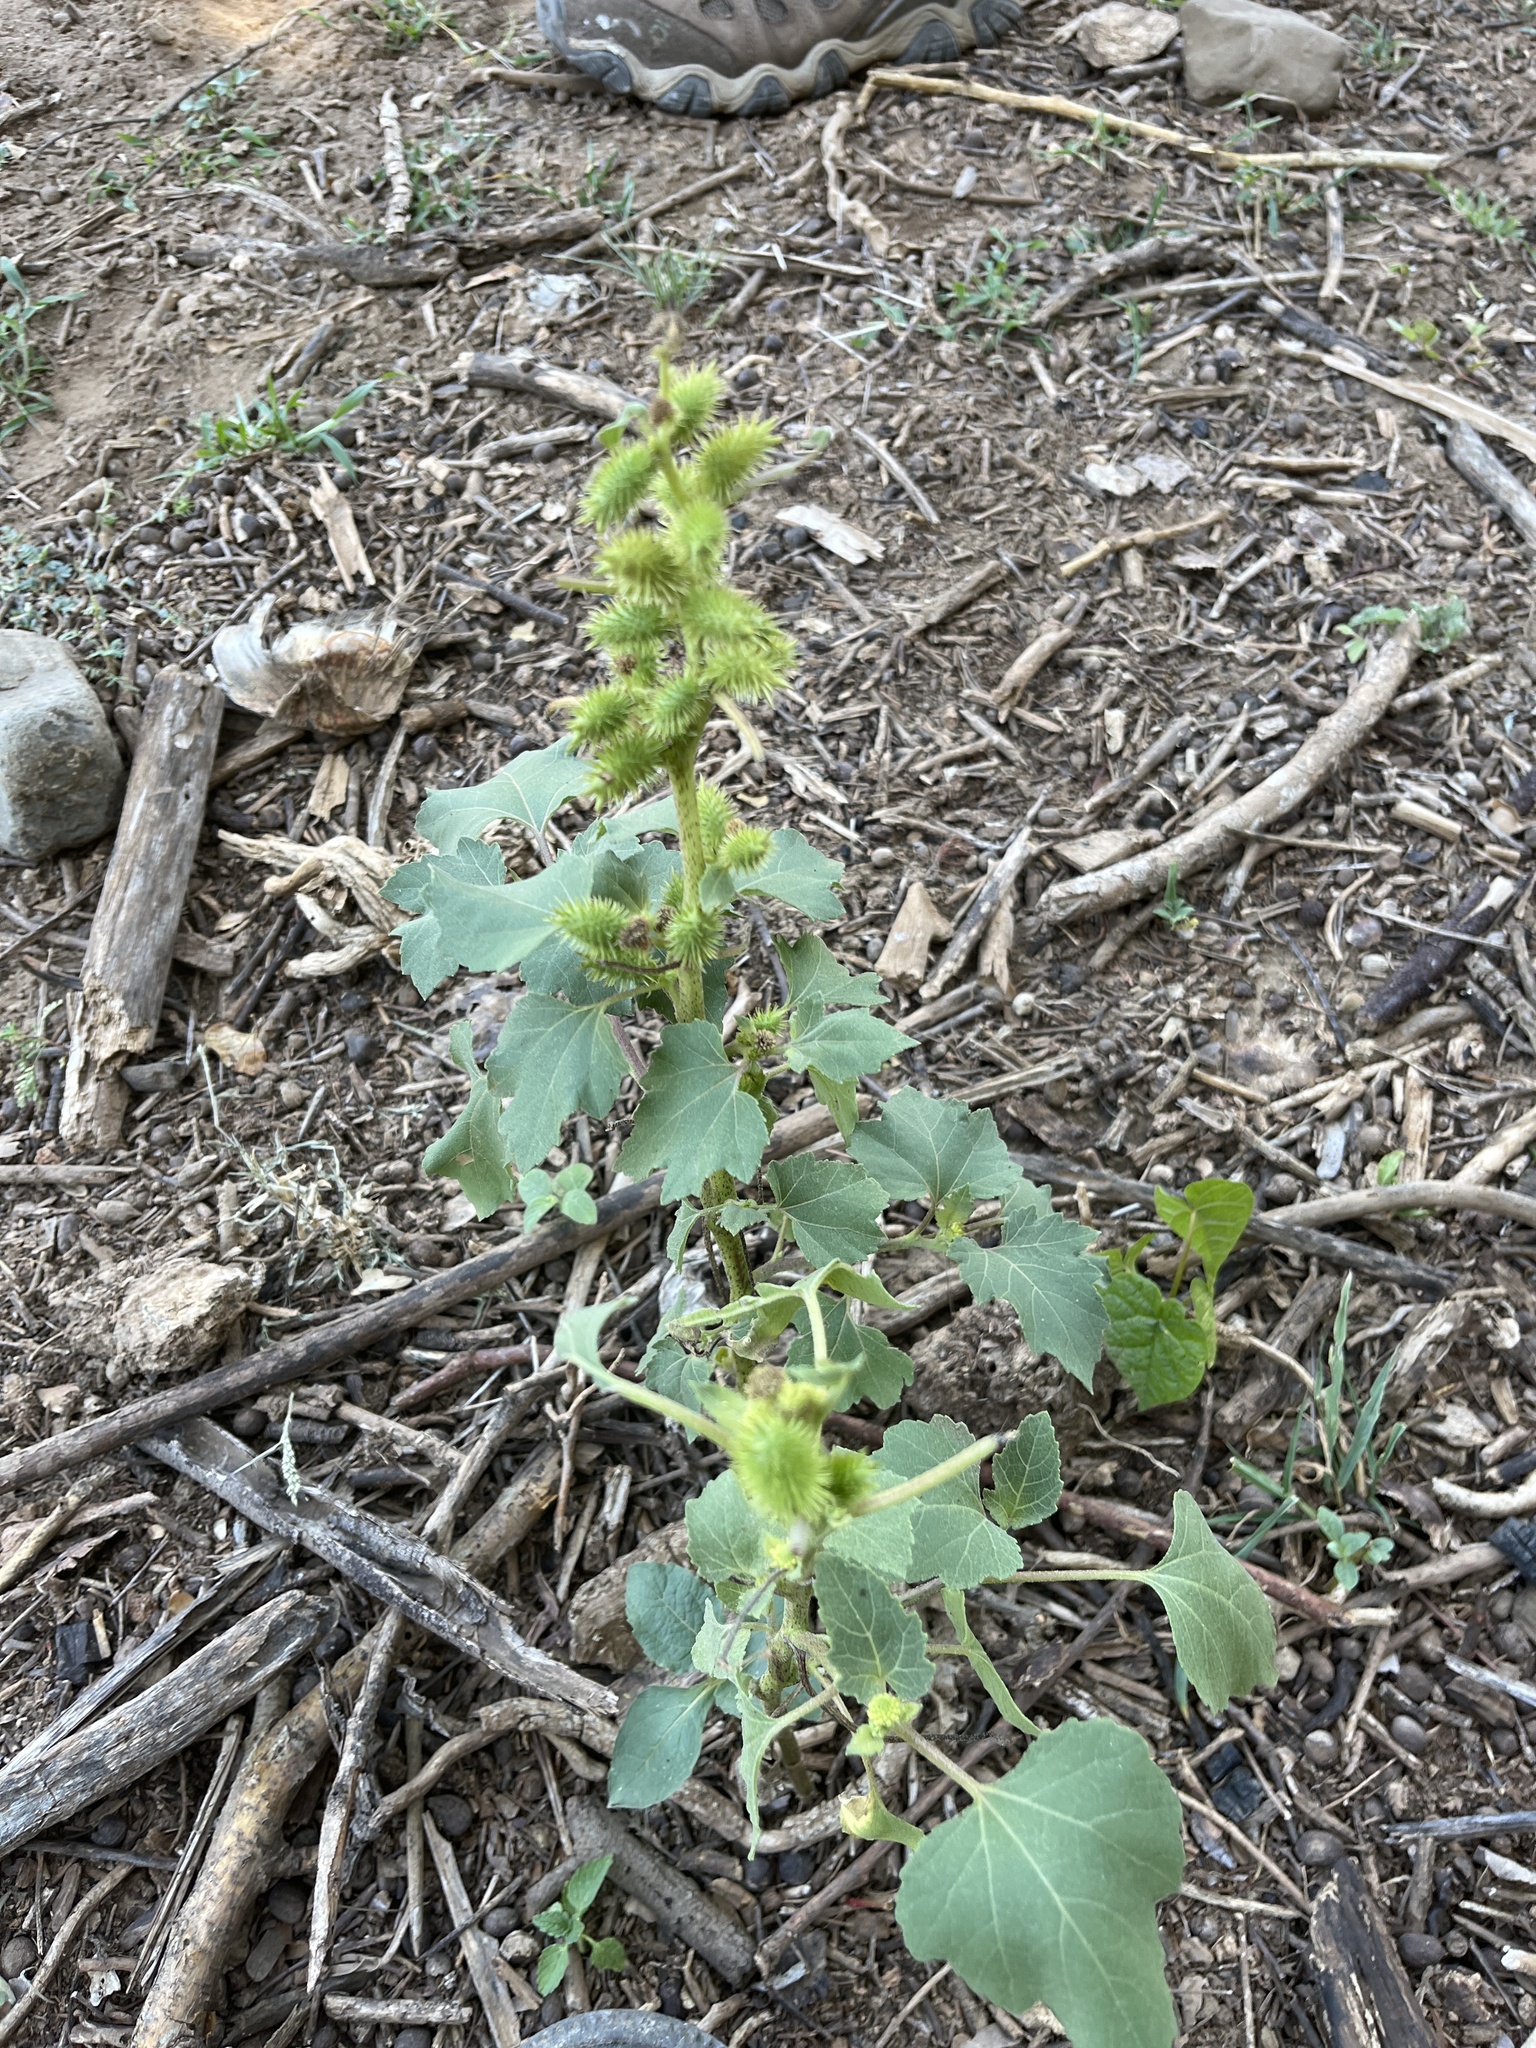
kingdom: Plantae
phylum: Tracheophyta
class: Magnoliopsida
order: Asterales
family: Asteraceae
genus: Xanthium
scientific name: Xanthium strumarium
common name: Rough cocklebur
